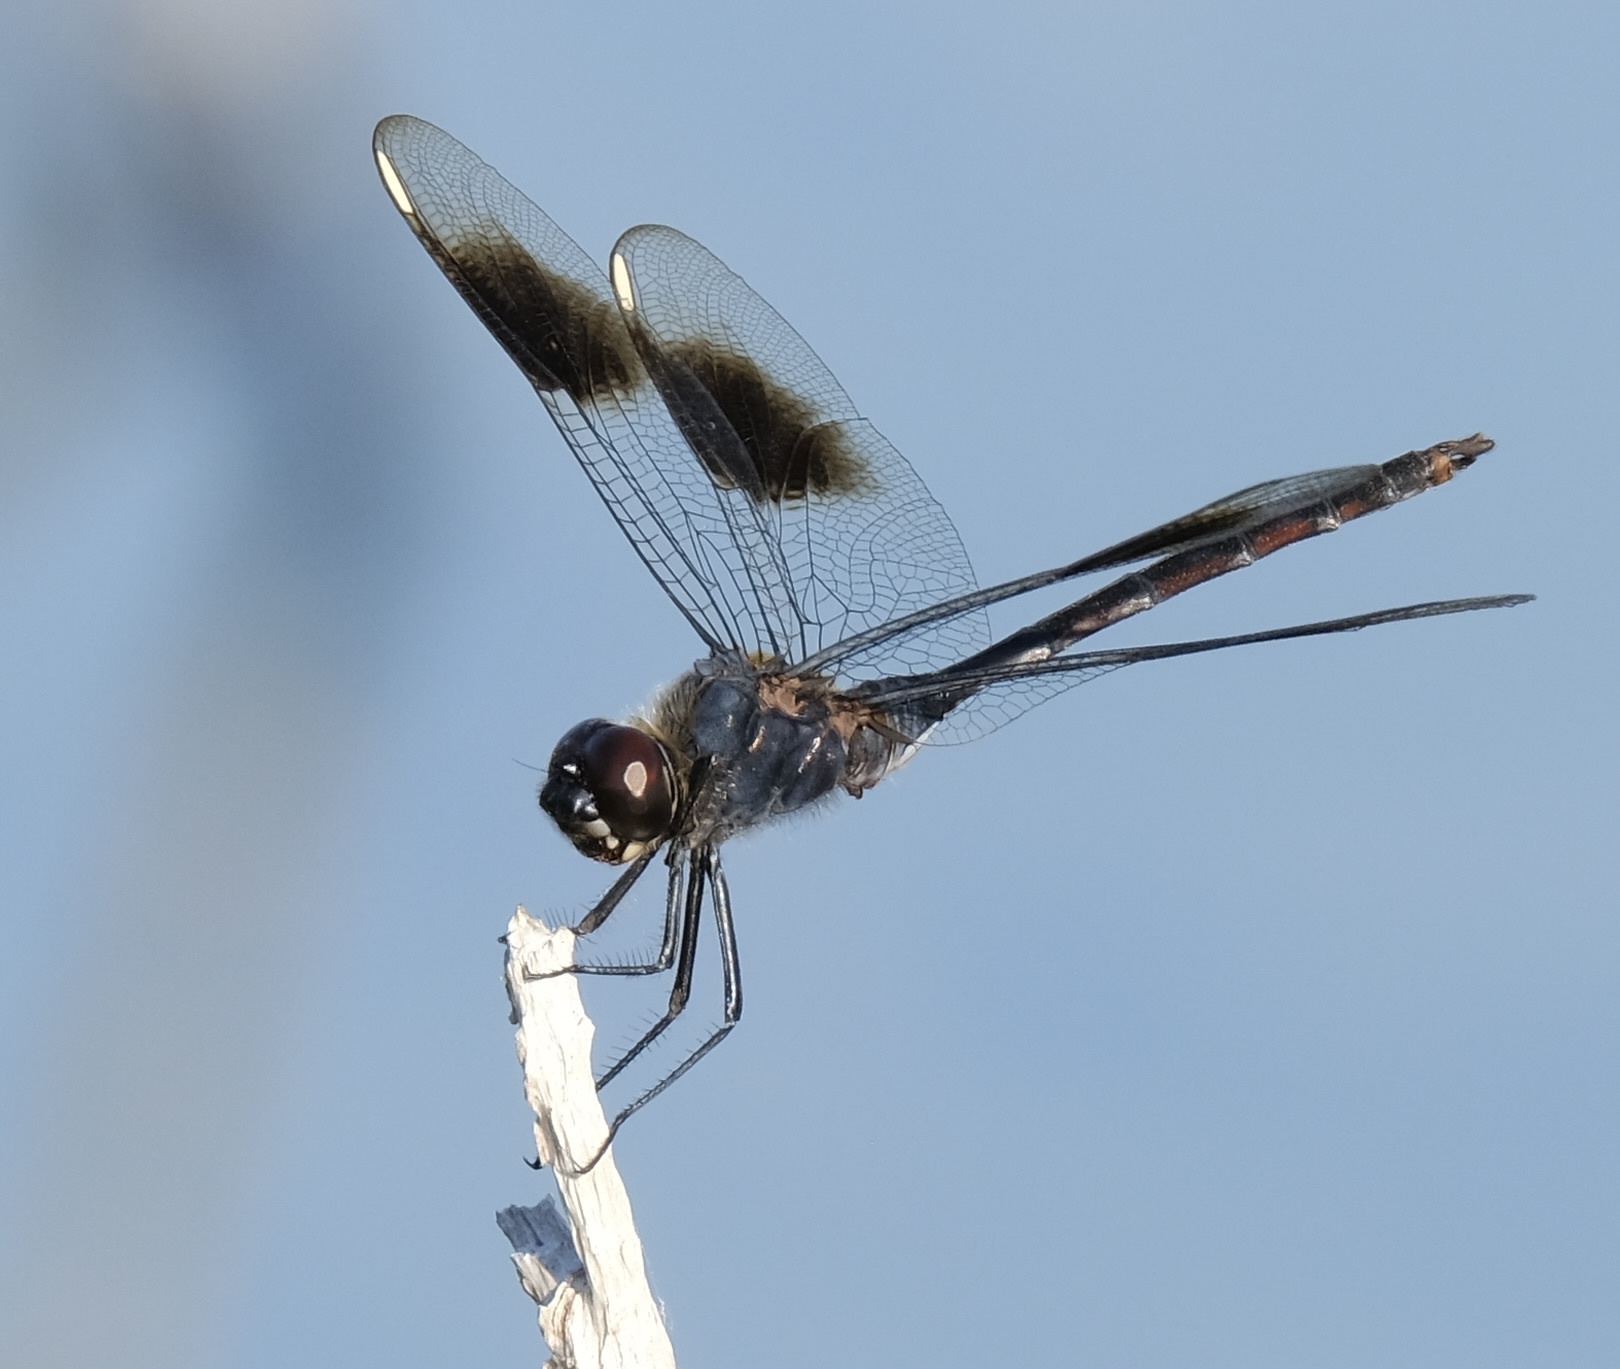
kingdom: Animalia
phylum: Arthropoda
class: Insecta
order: Odonata
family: Libellulidae
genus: Brachymesia
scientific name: Brachymesia gravida
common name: Four-spotted pennant
